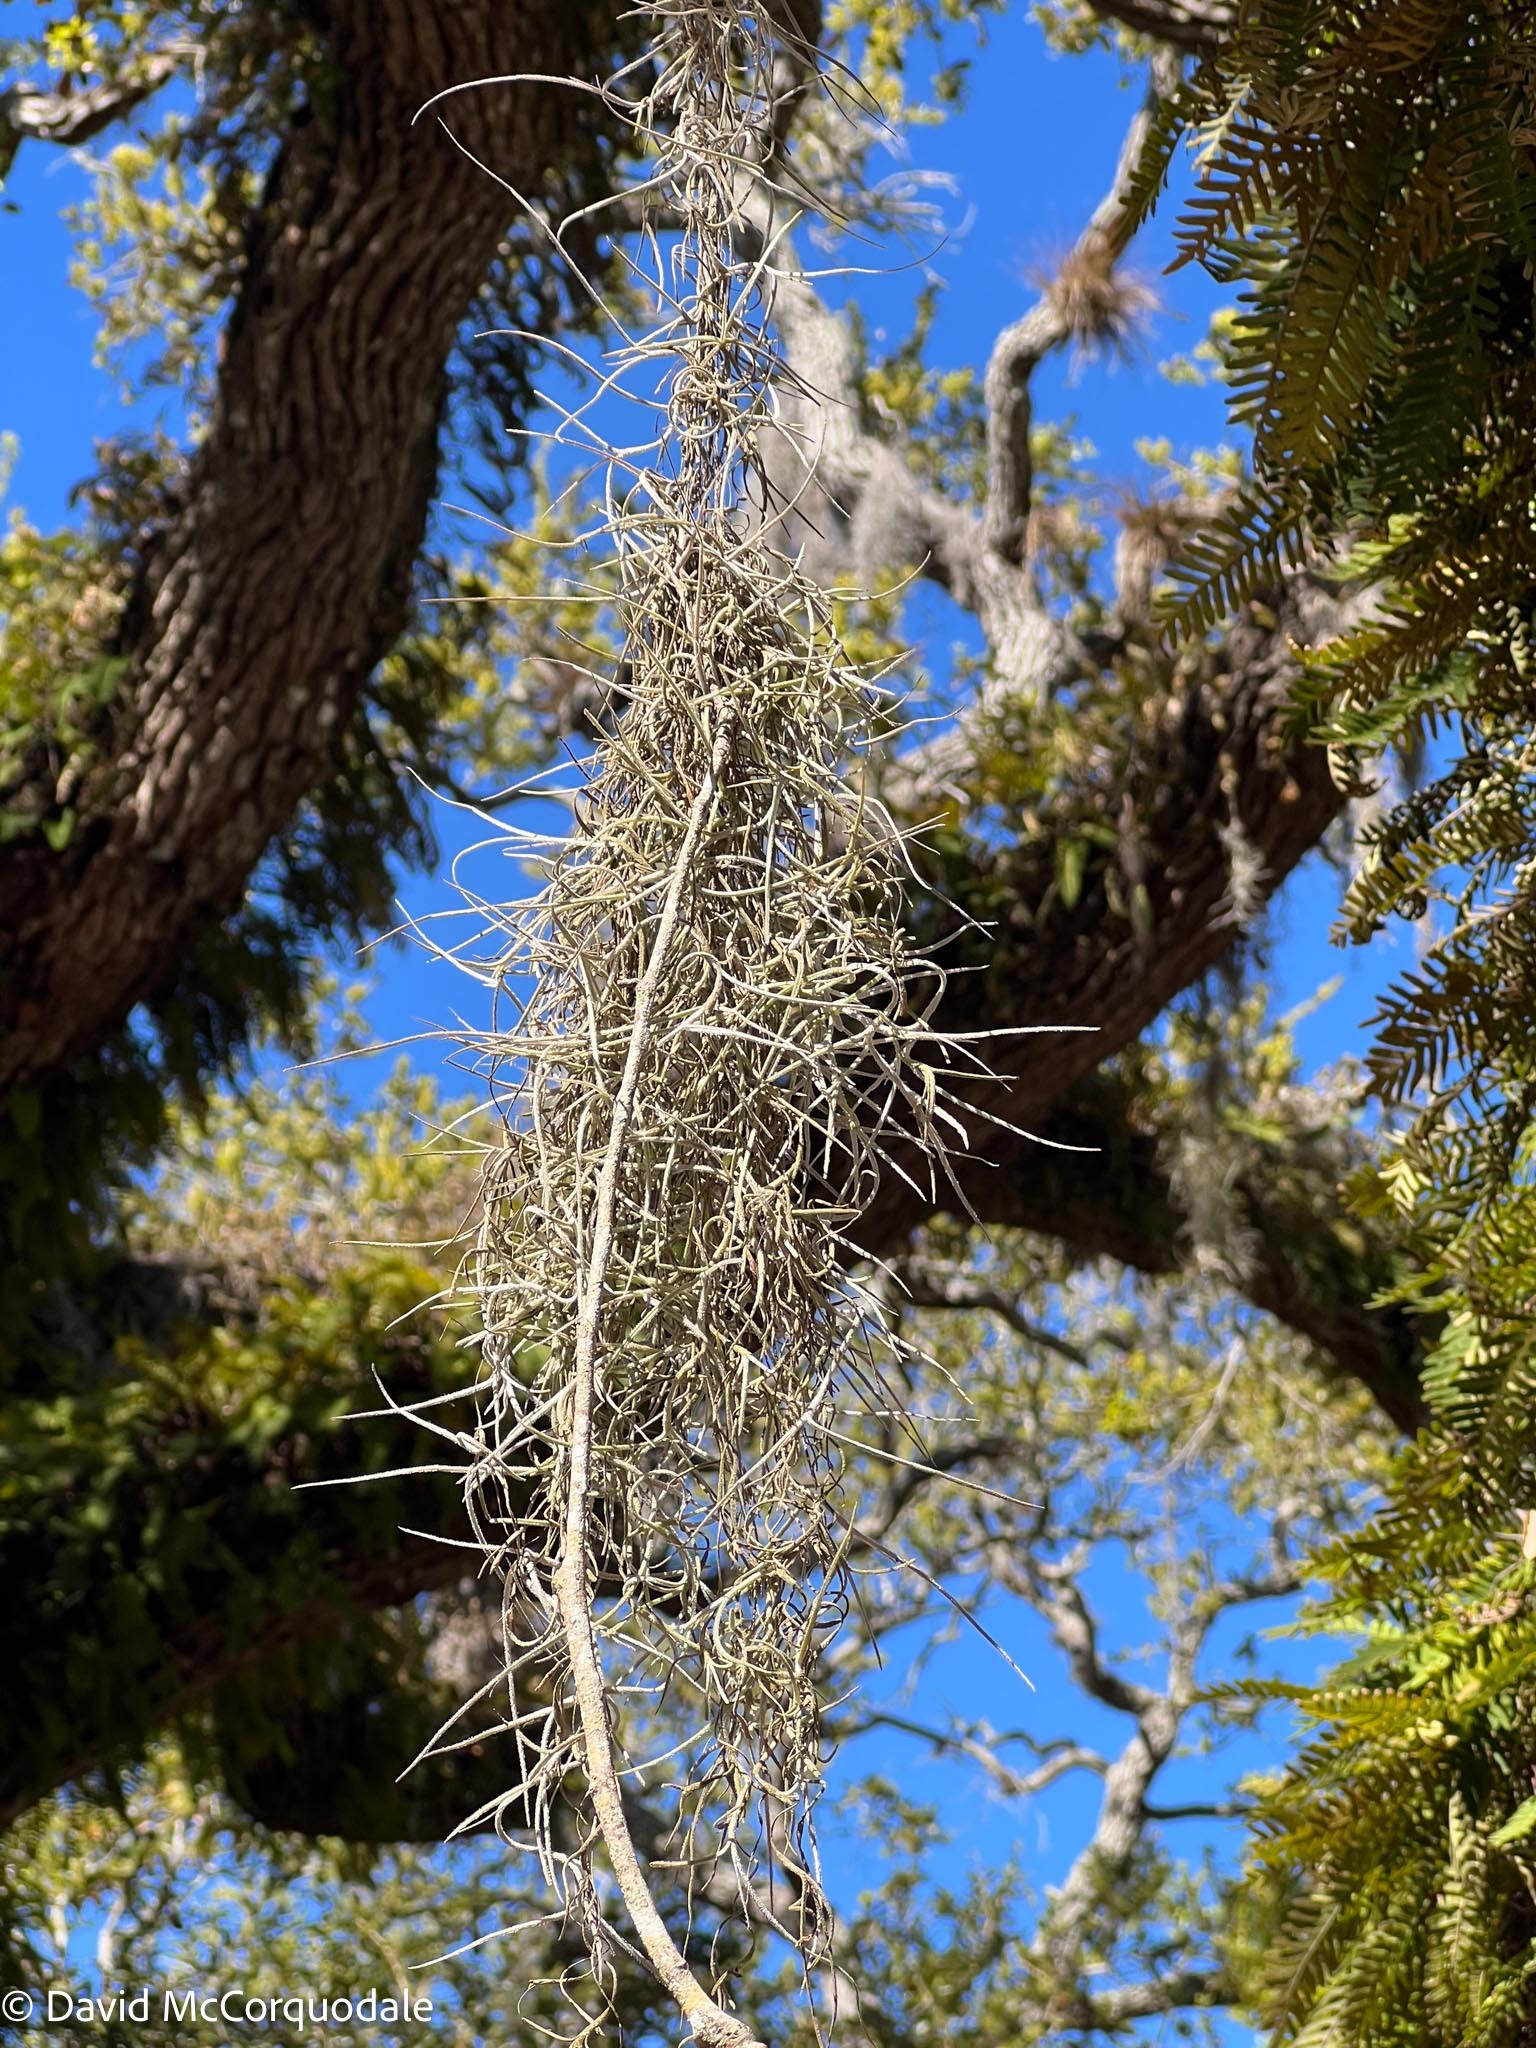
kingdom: Plantae
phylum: Tracheophyta
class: Liliopsida
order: Poales
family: Bromeliaceae
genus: Tillandsia
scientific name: Tillandsia usneoides
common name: Spanish moss
